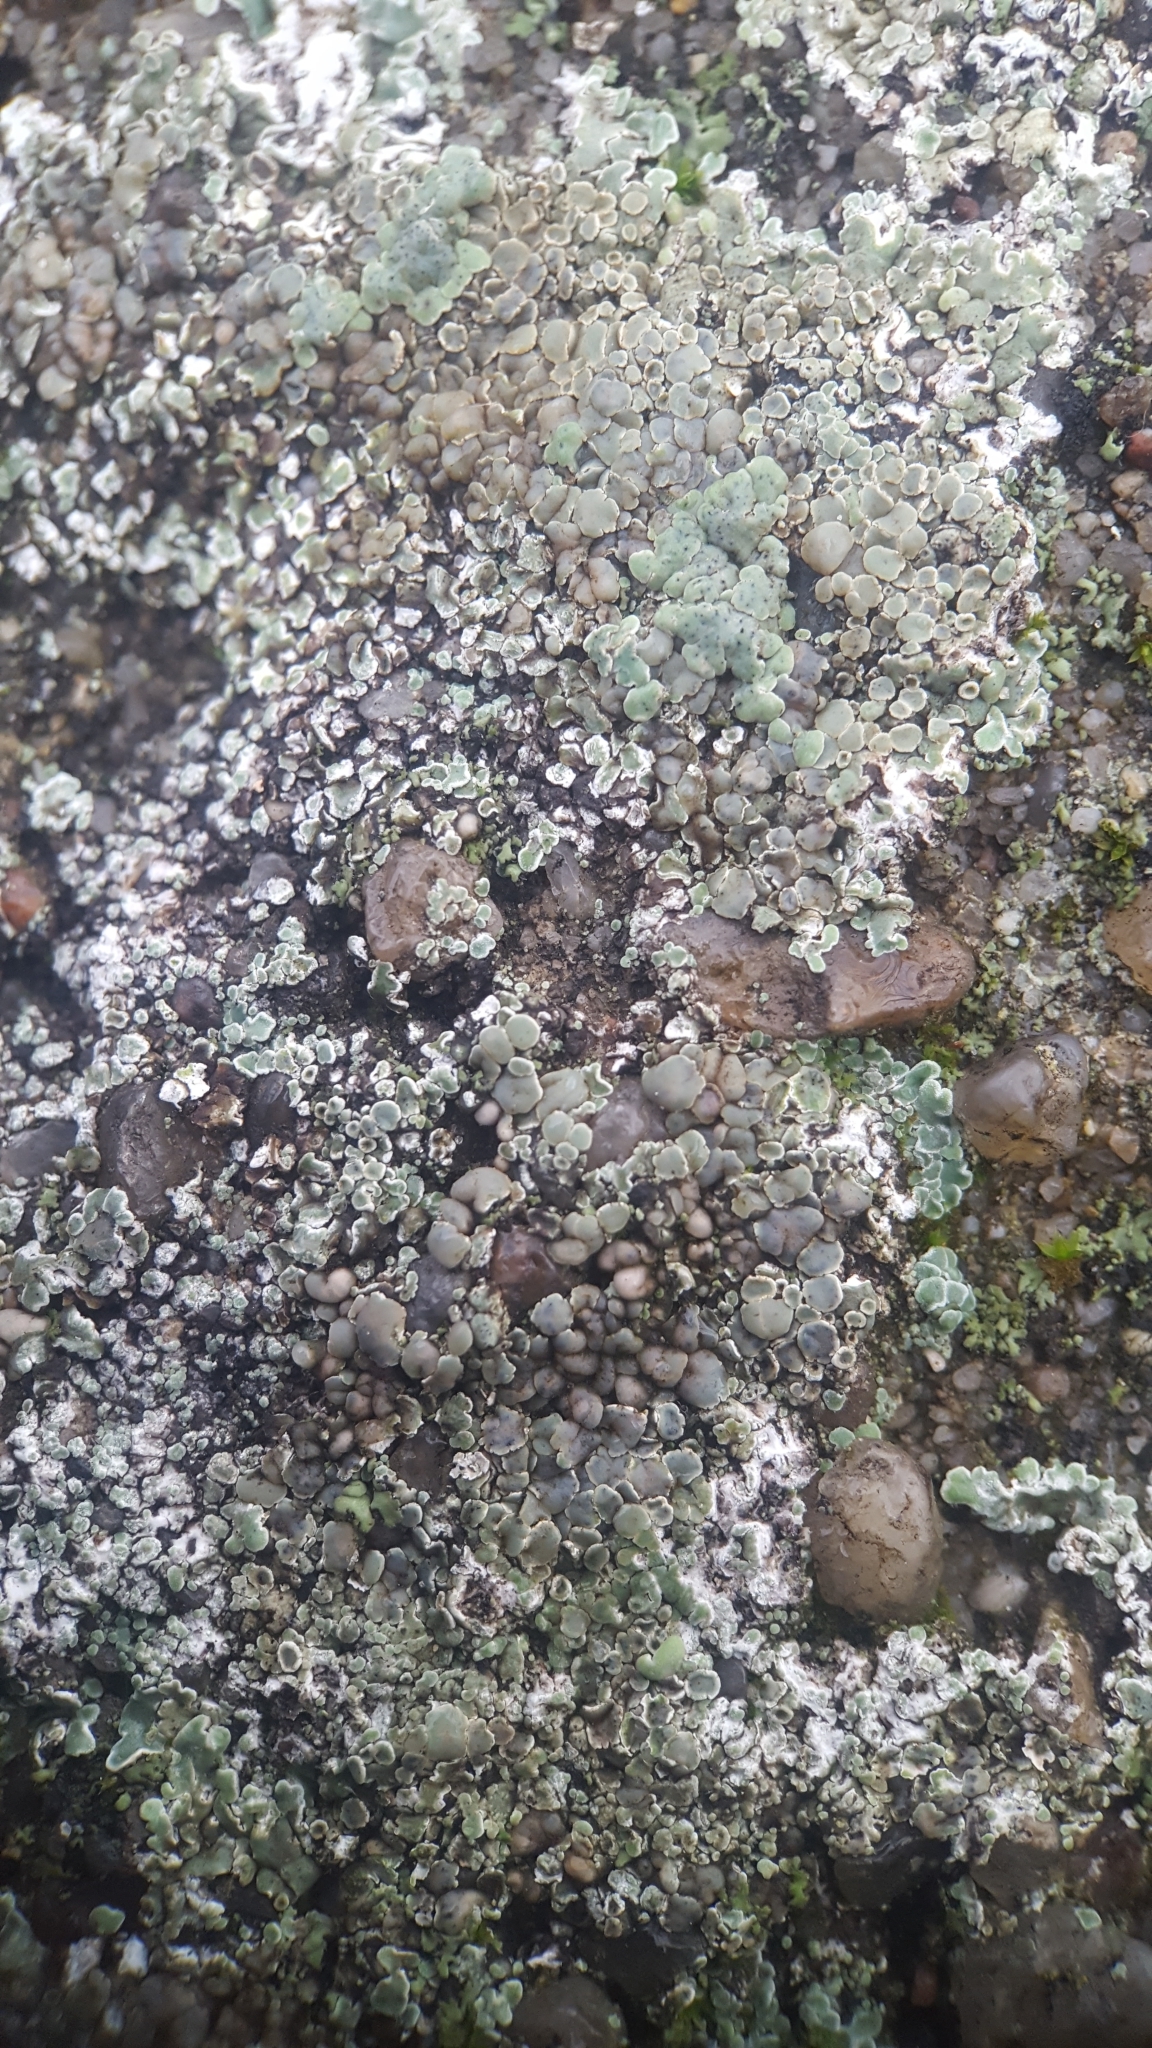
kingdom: Fungi
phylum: Ascomycota
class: Lecanoromycetes
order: Lecanorales
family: Lecanoraceae
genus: Protoparmeliopsis
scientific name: Protoparmeliopsis muralis
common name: Stonewall rim lichen
